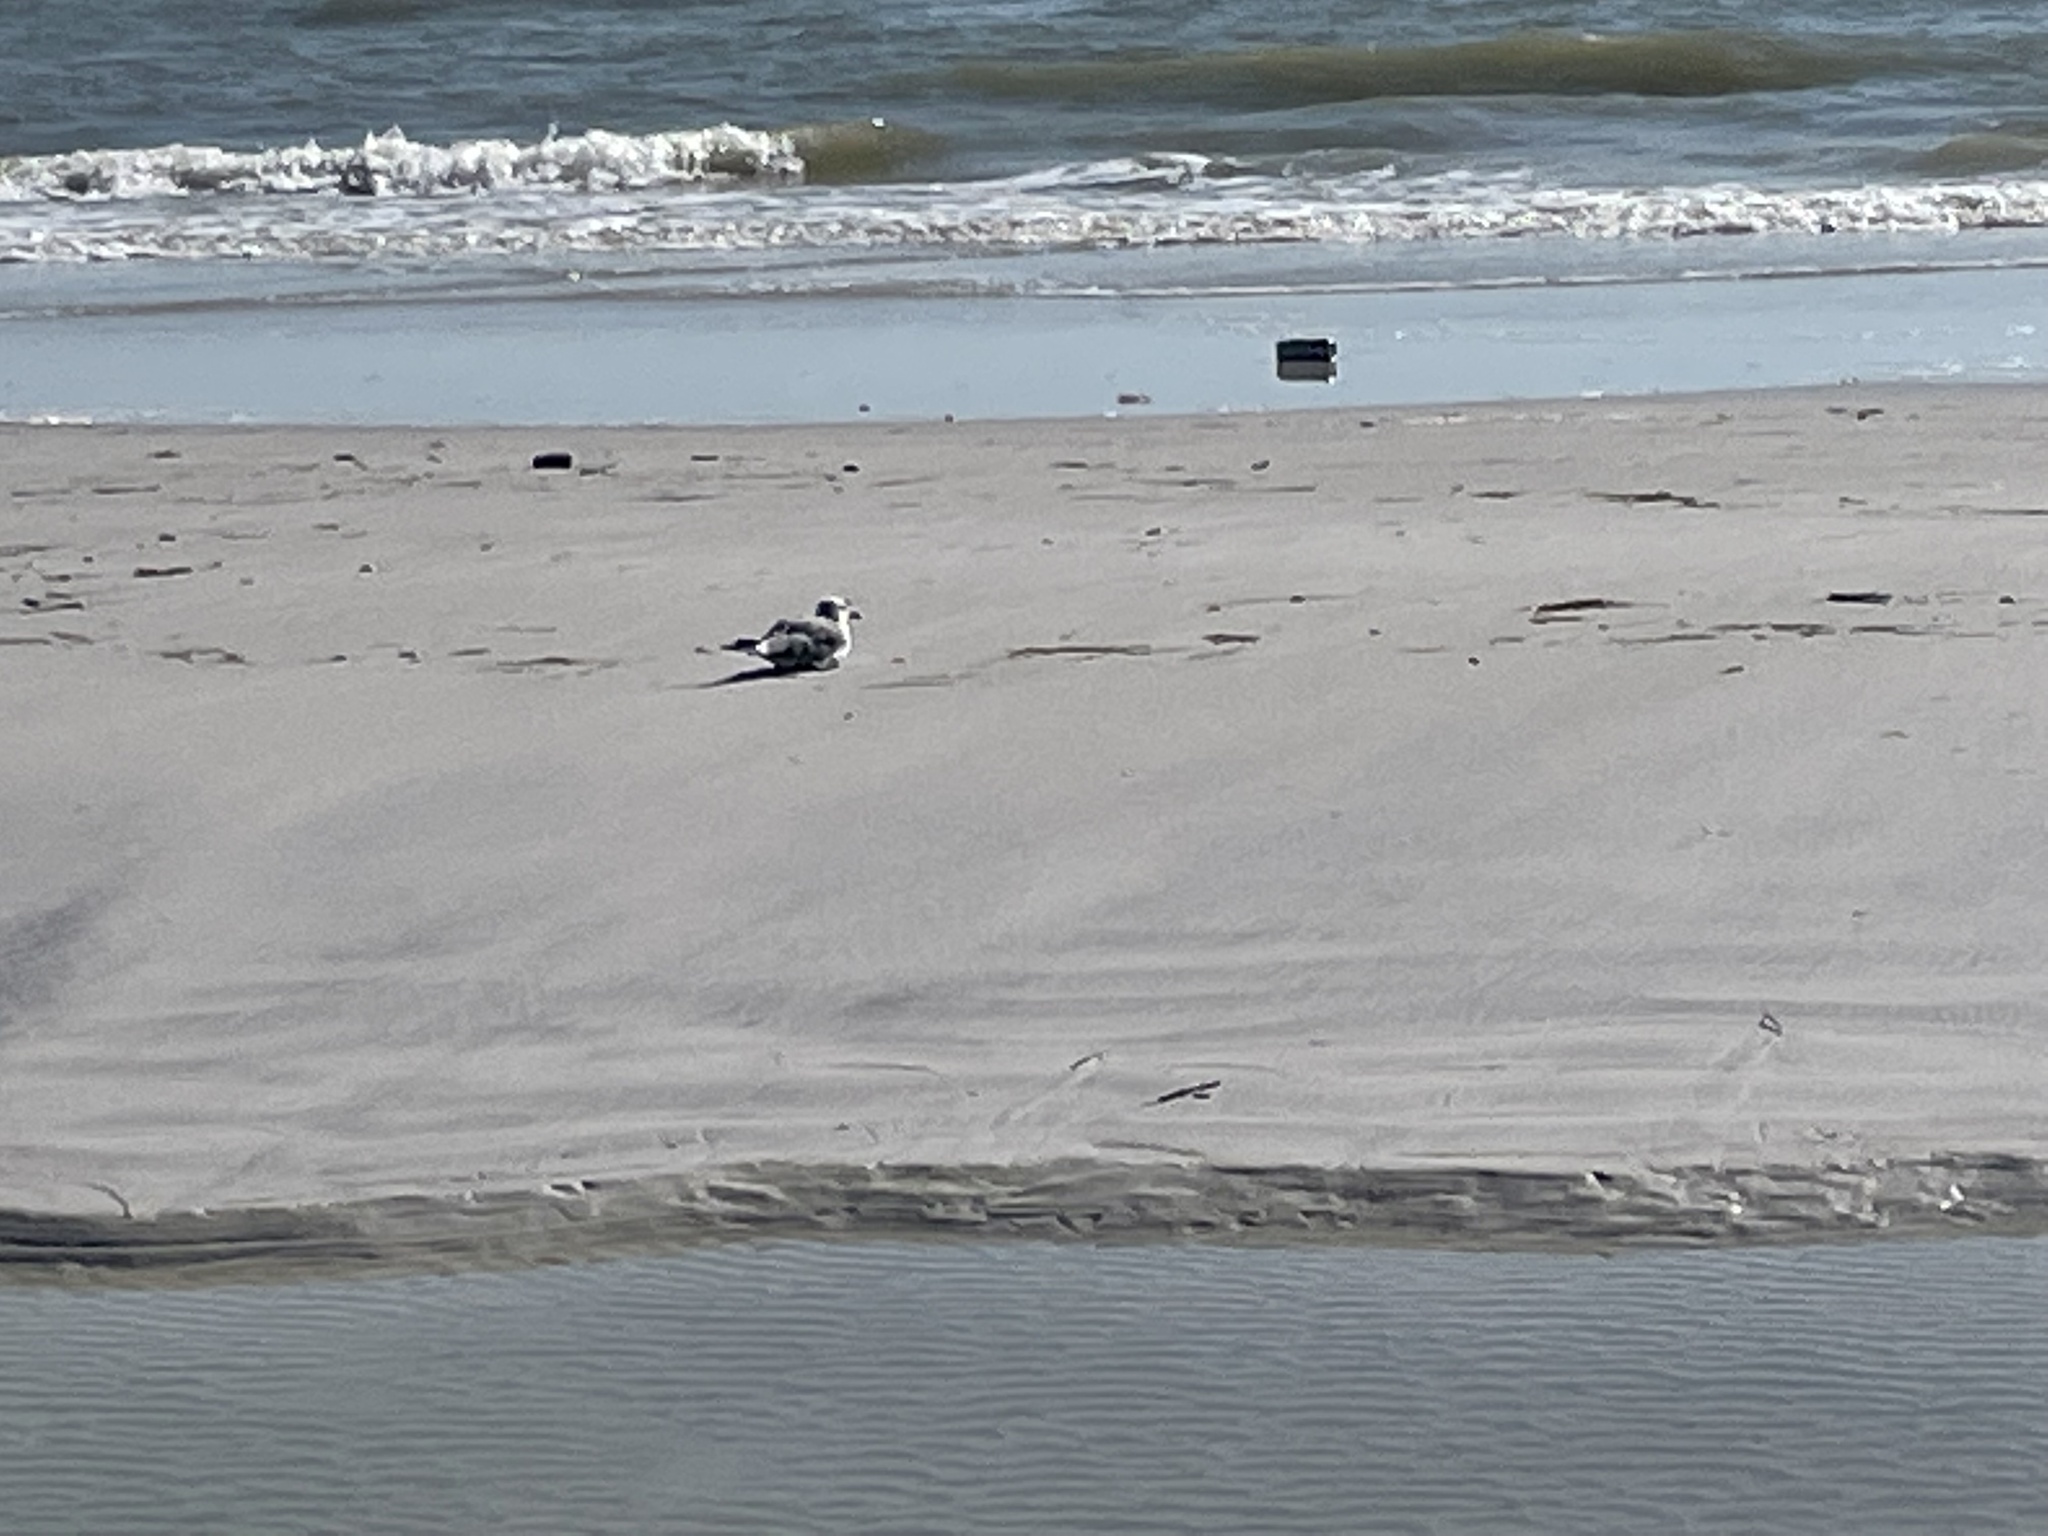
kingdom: Animalia
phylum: Chordata
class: Aves
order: Charadriiformes
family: Laridae
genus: Leucophaeus
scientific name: Leucophaeus atricilla
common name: Laughing gull
